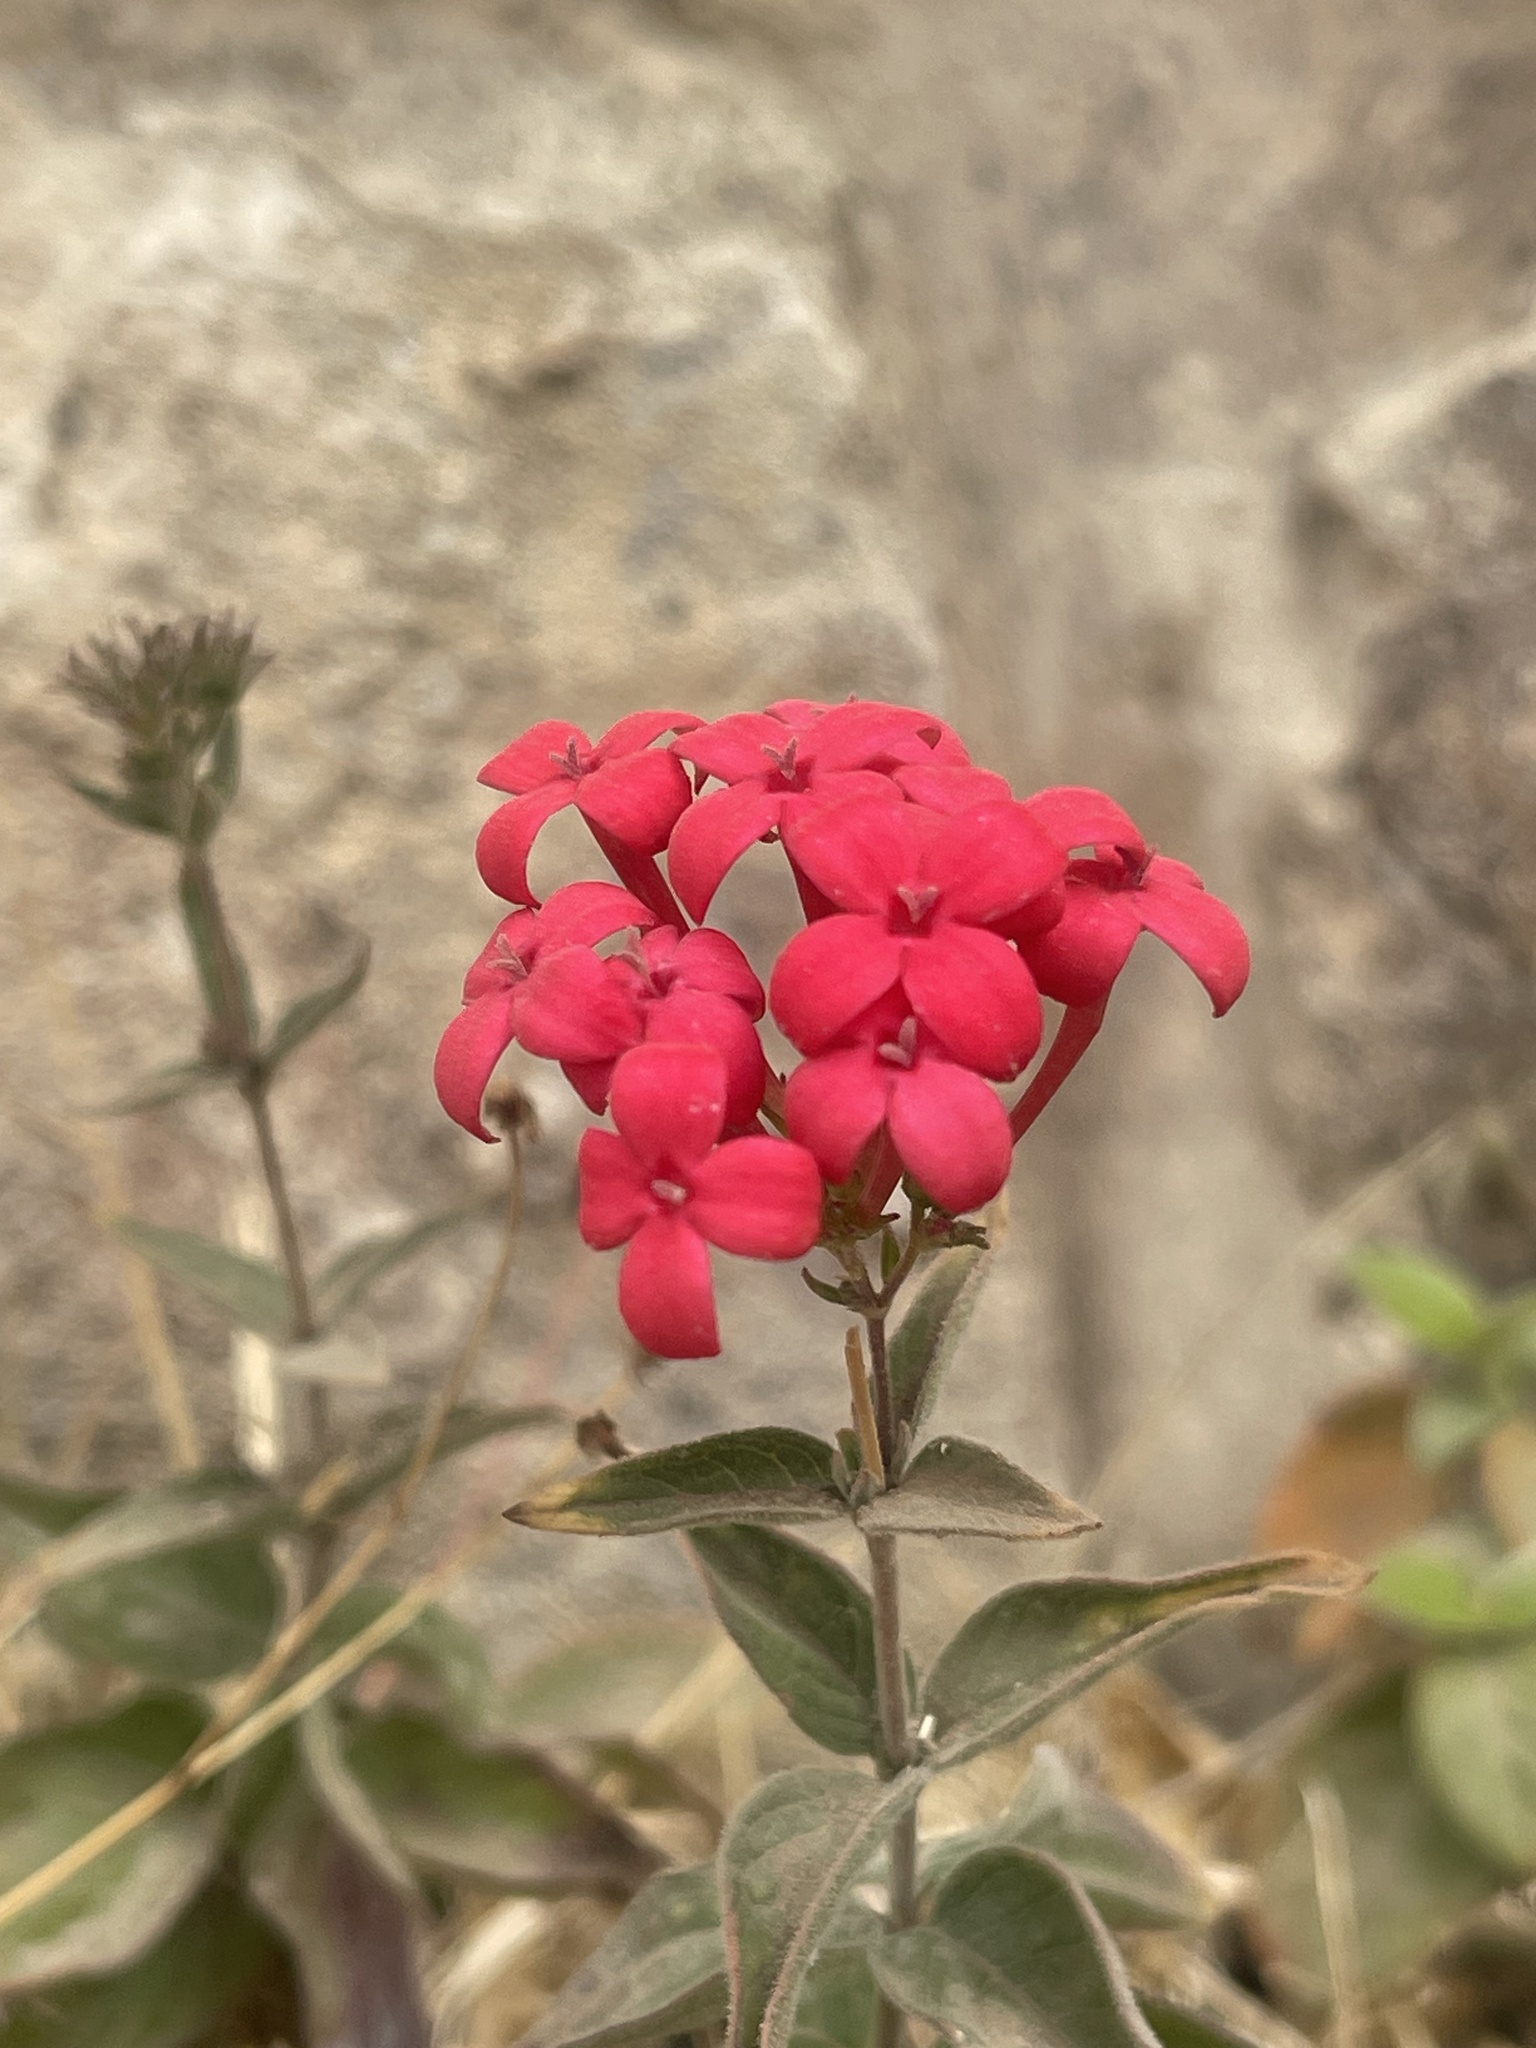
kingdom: Plantae
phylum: Tracheophyta
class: Magnoliopsida
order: Gentianales
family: Rubiaceae
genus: Bouvardia
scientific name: Bouvardia viminalis
